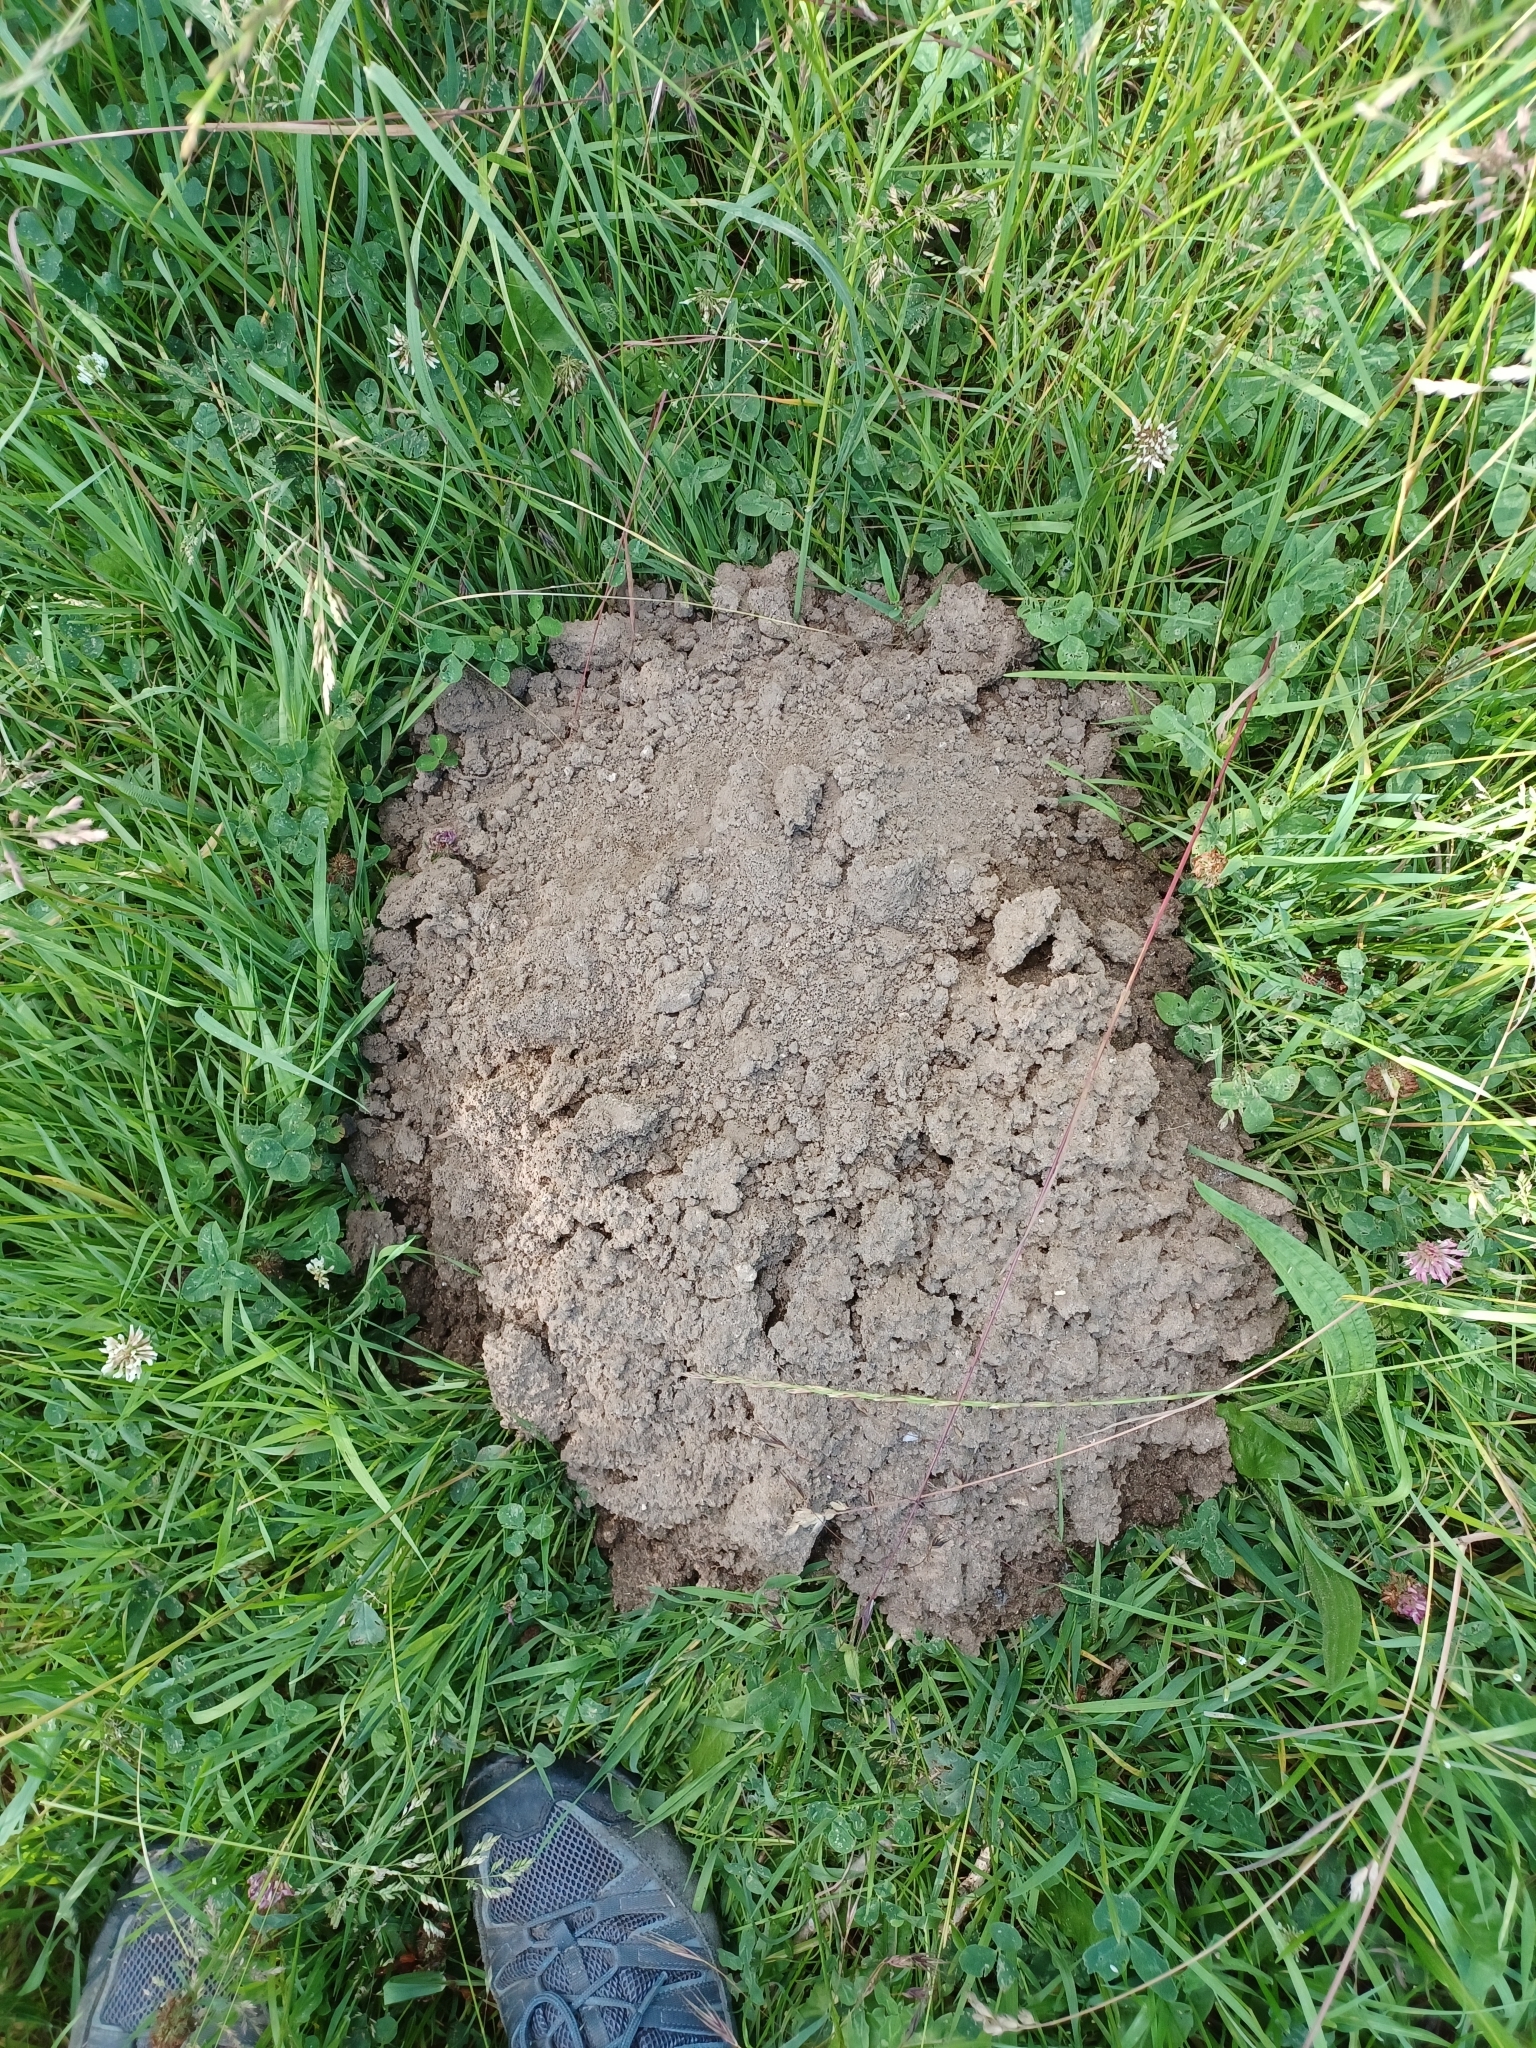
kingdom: Animalia
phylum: Chordata
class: Mammalia
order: Soricomorpha
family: Talpidae
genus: Talpa
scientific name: Talpa europaea
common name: European mole
